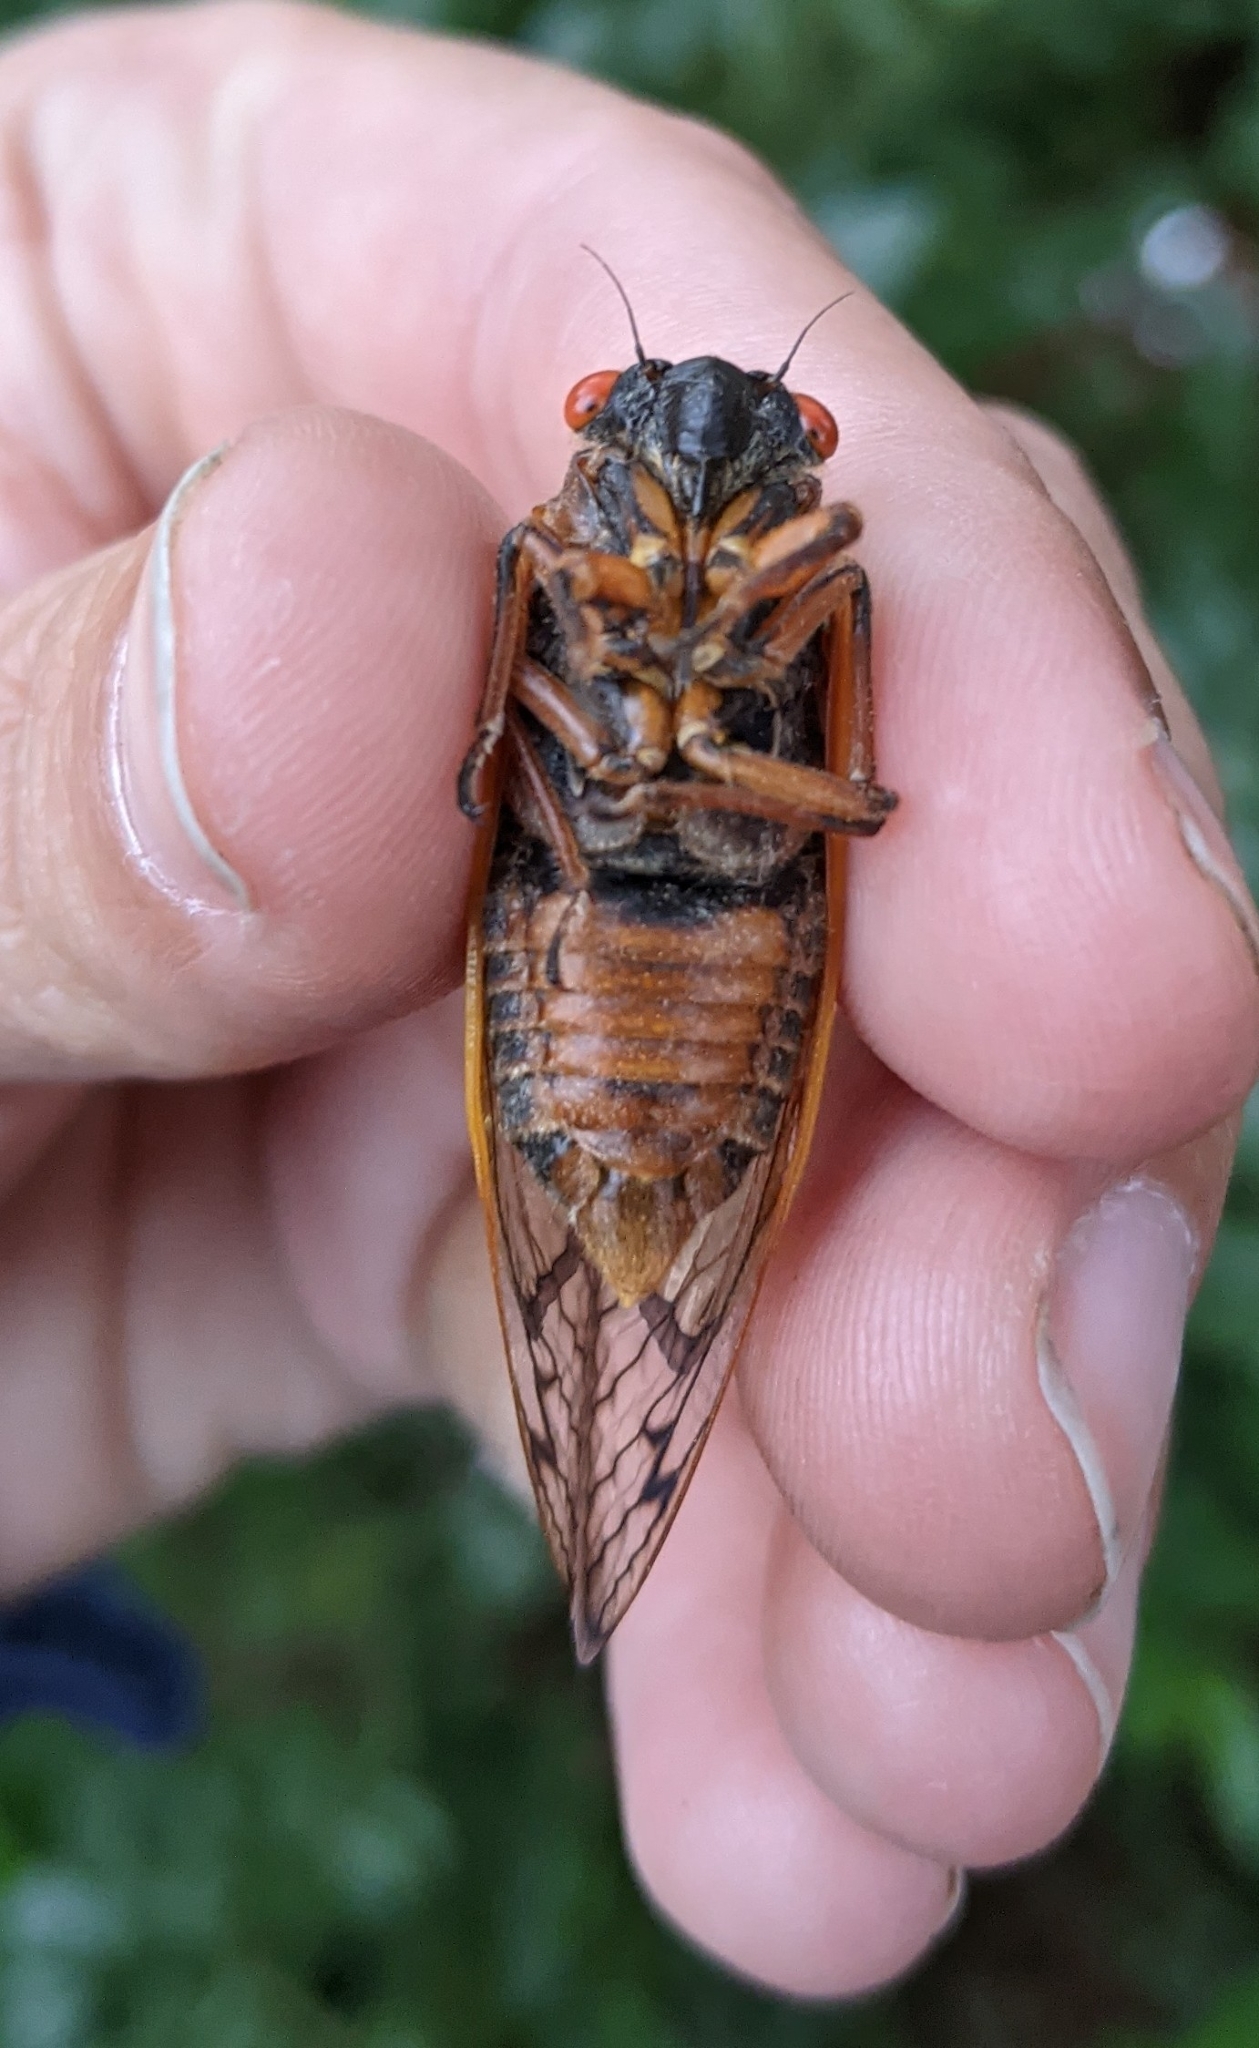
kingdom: Animalia
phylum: Arthropoda
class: Insecta
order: Hemiptera
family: Cicadidae
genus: Magicicada
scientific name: Magicicada septendecim
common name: Periodical cicada
